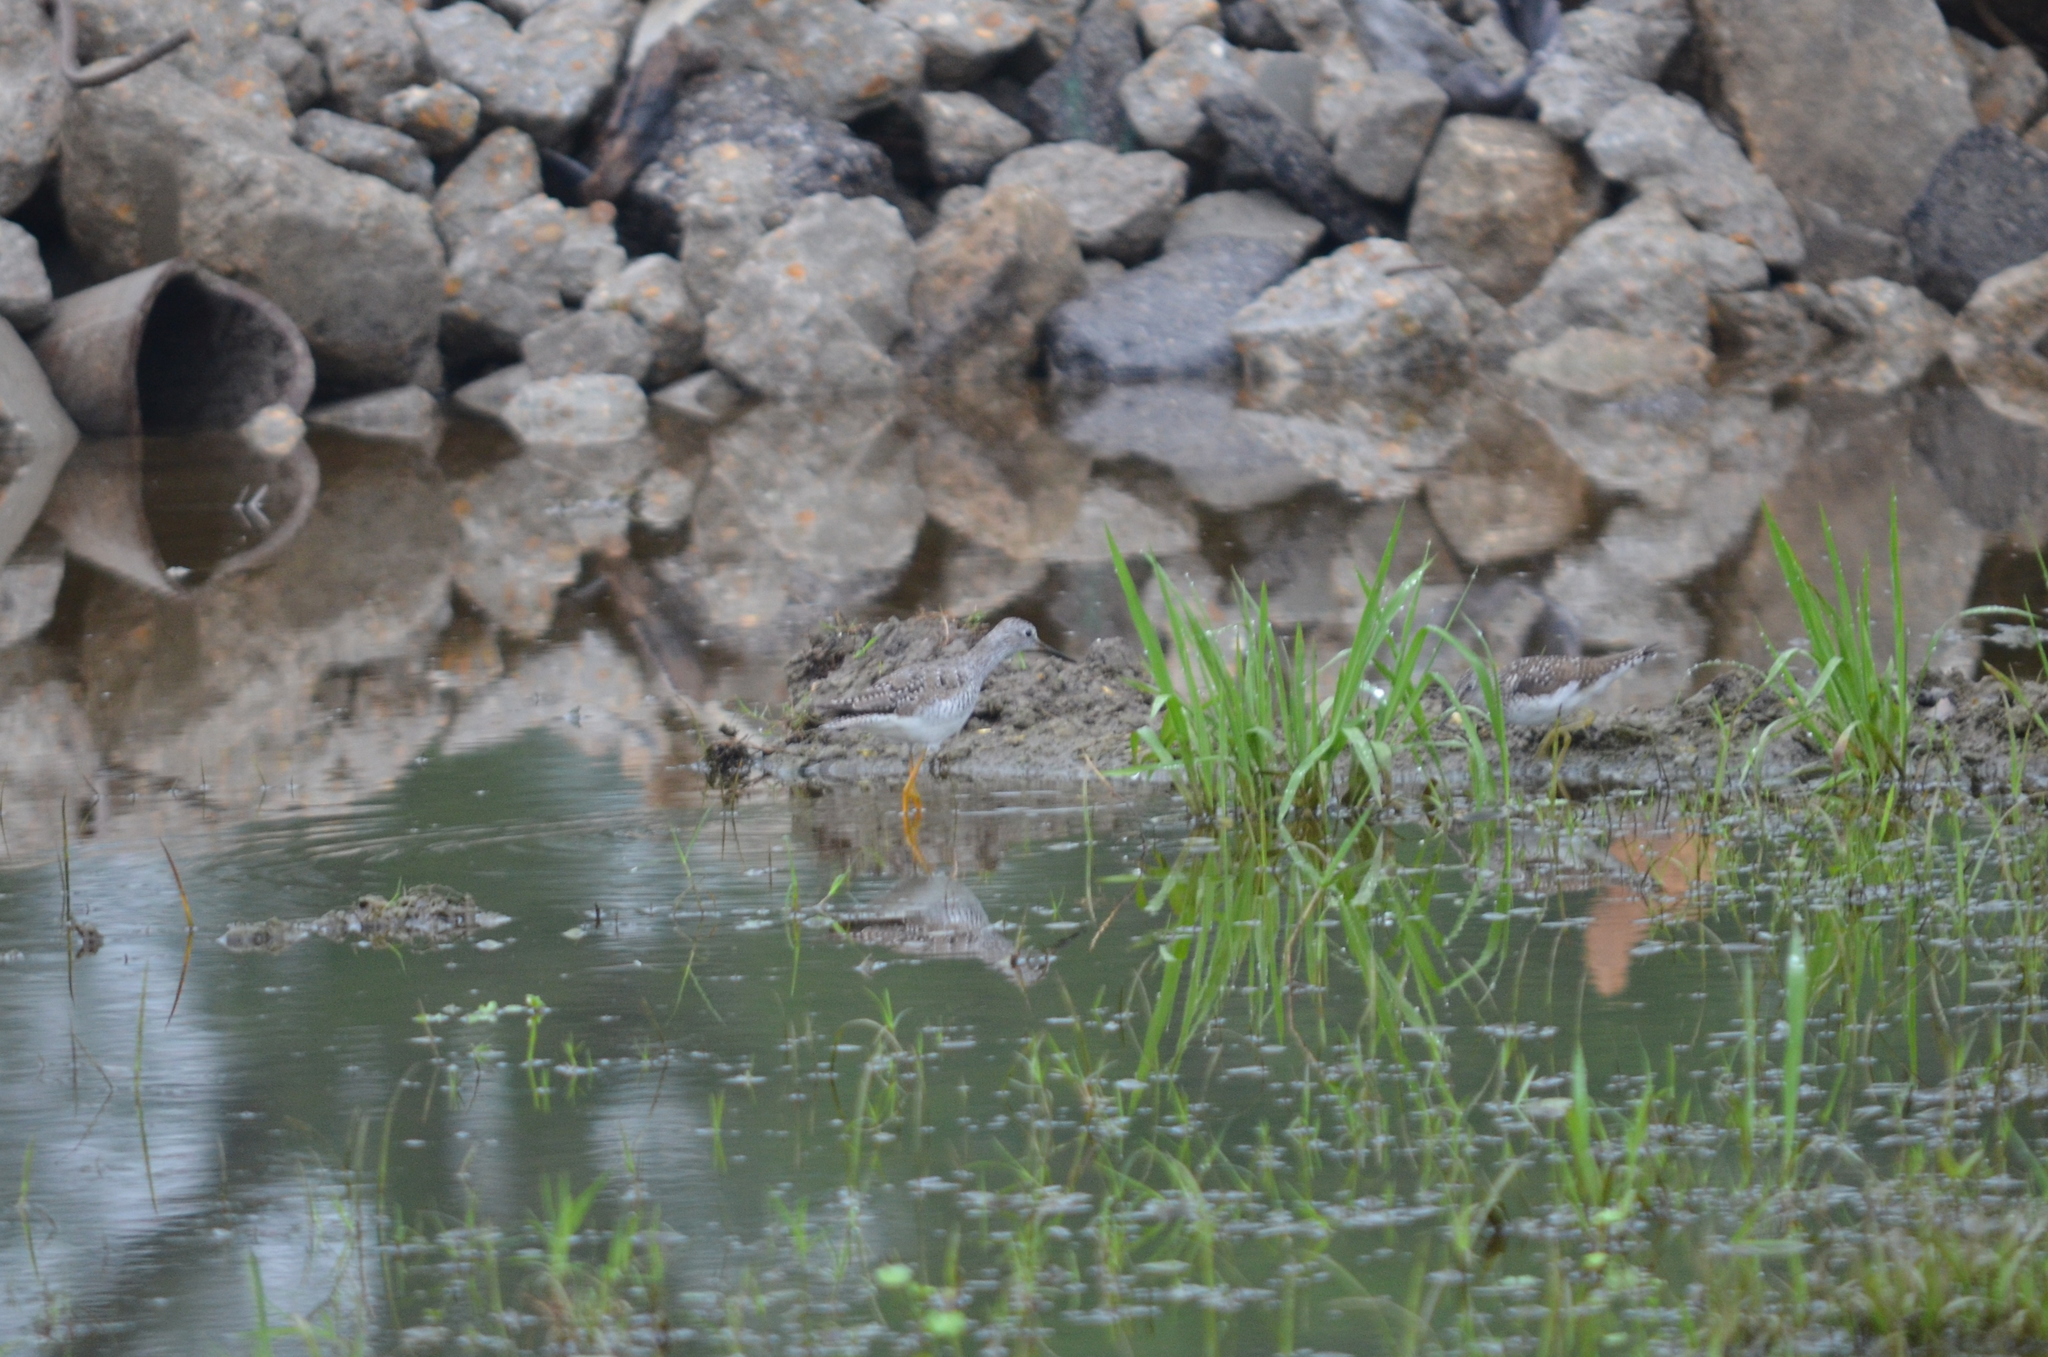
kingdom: Animalia
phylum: Chordata
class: Aves
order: Charadriiformes
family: Scolopacidae
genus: Tringa
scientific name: Tringa flavipes
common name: Lesser yellowlegs
